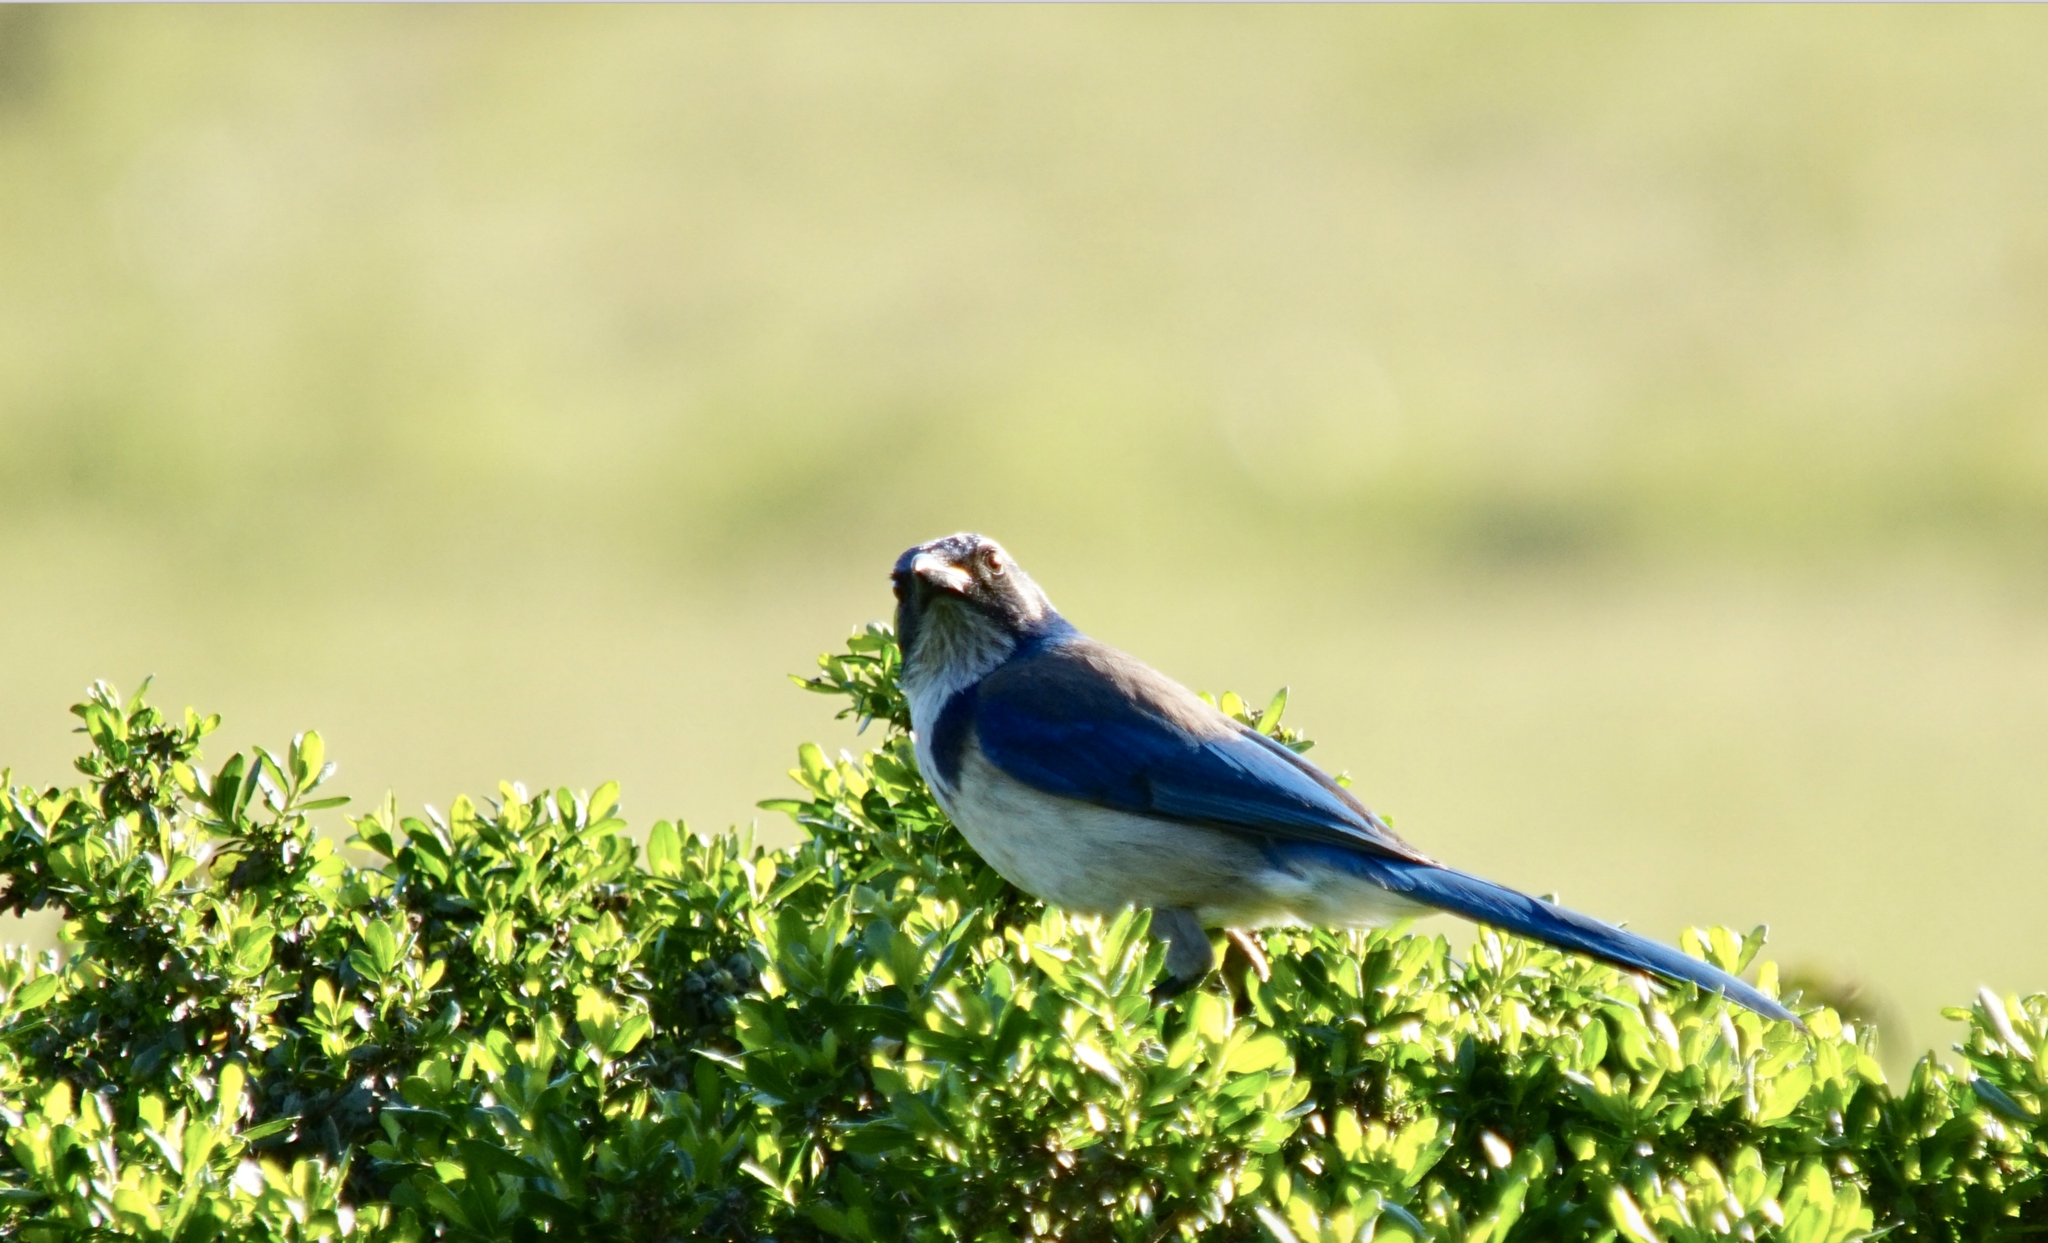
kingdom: Animalia
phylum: Chordata
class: Aves
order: Passeriformes
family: Corvidae
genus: Aphelocoma
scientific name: Aphelocoma californica
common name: California scrub-jay
